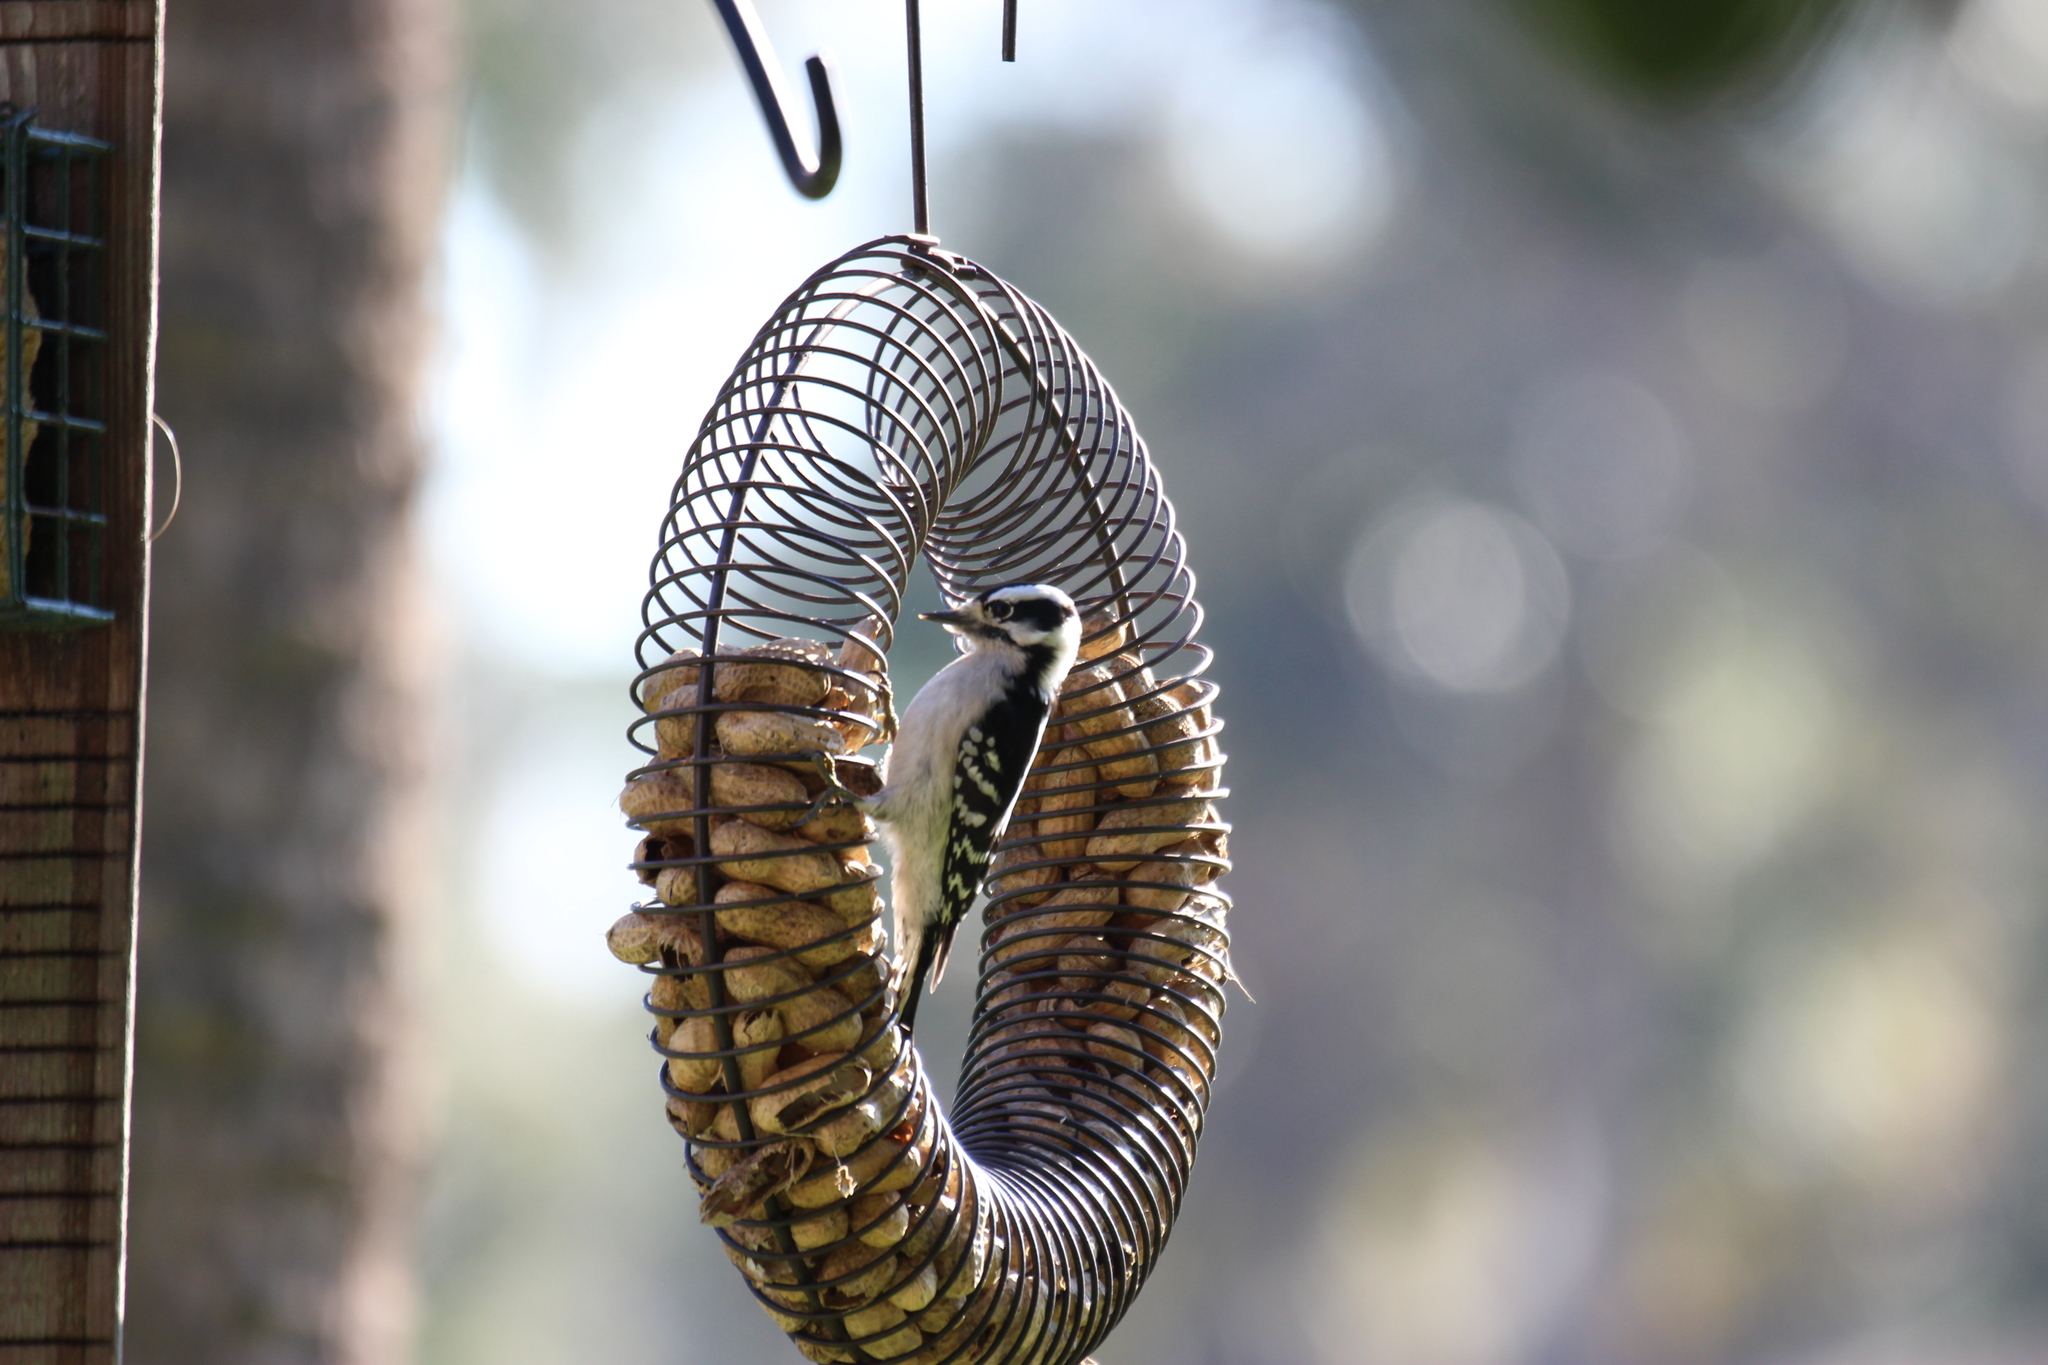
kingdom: Animalia
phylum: Chordata
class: Aves
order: Piciformes
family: Picidae
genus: Dryobates
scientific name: Dryobates pubescens
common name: Downy woodpecker
